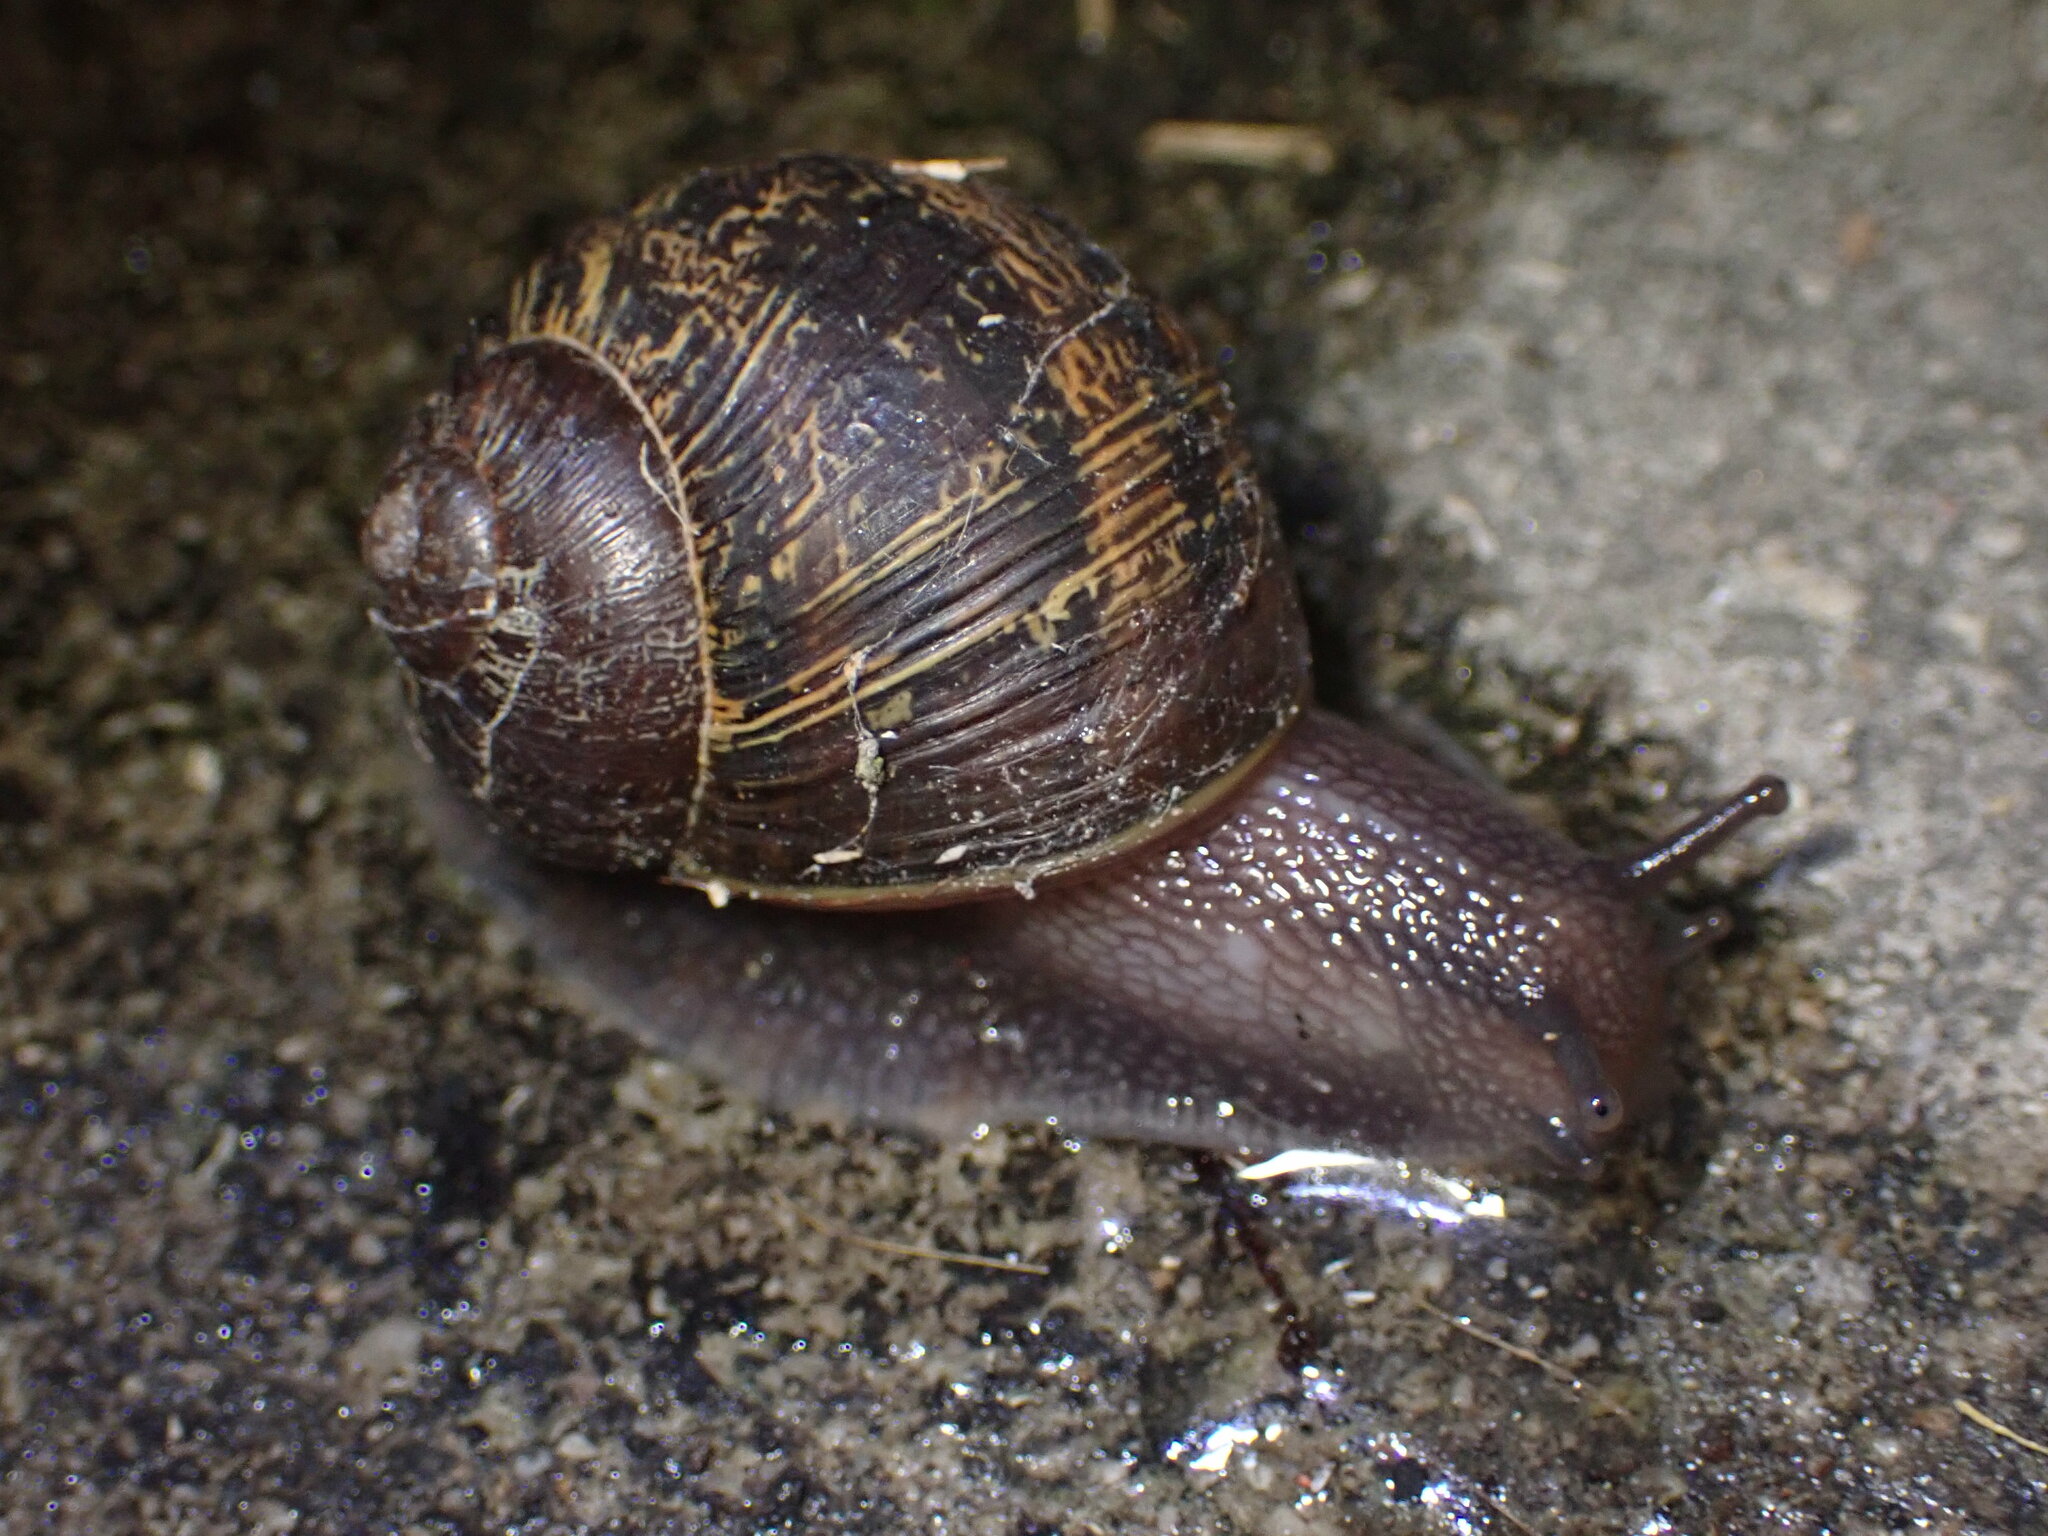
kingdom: Animalia
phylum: Mollusca
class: Gastropoda
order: Stylommatophora
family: Helicidae
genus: Cornu
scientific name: Cornu aspersum
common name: Brown garden snail
